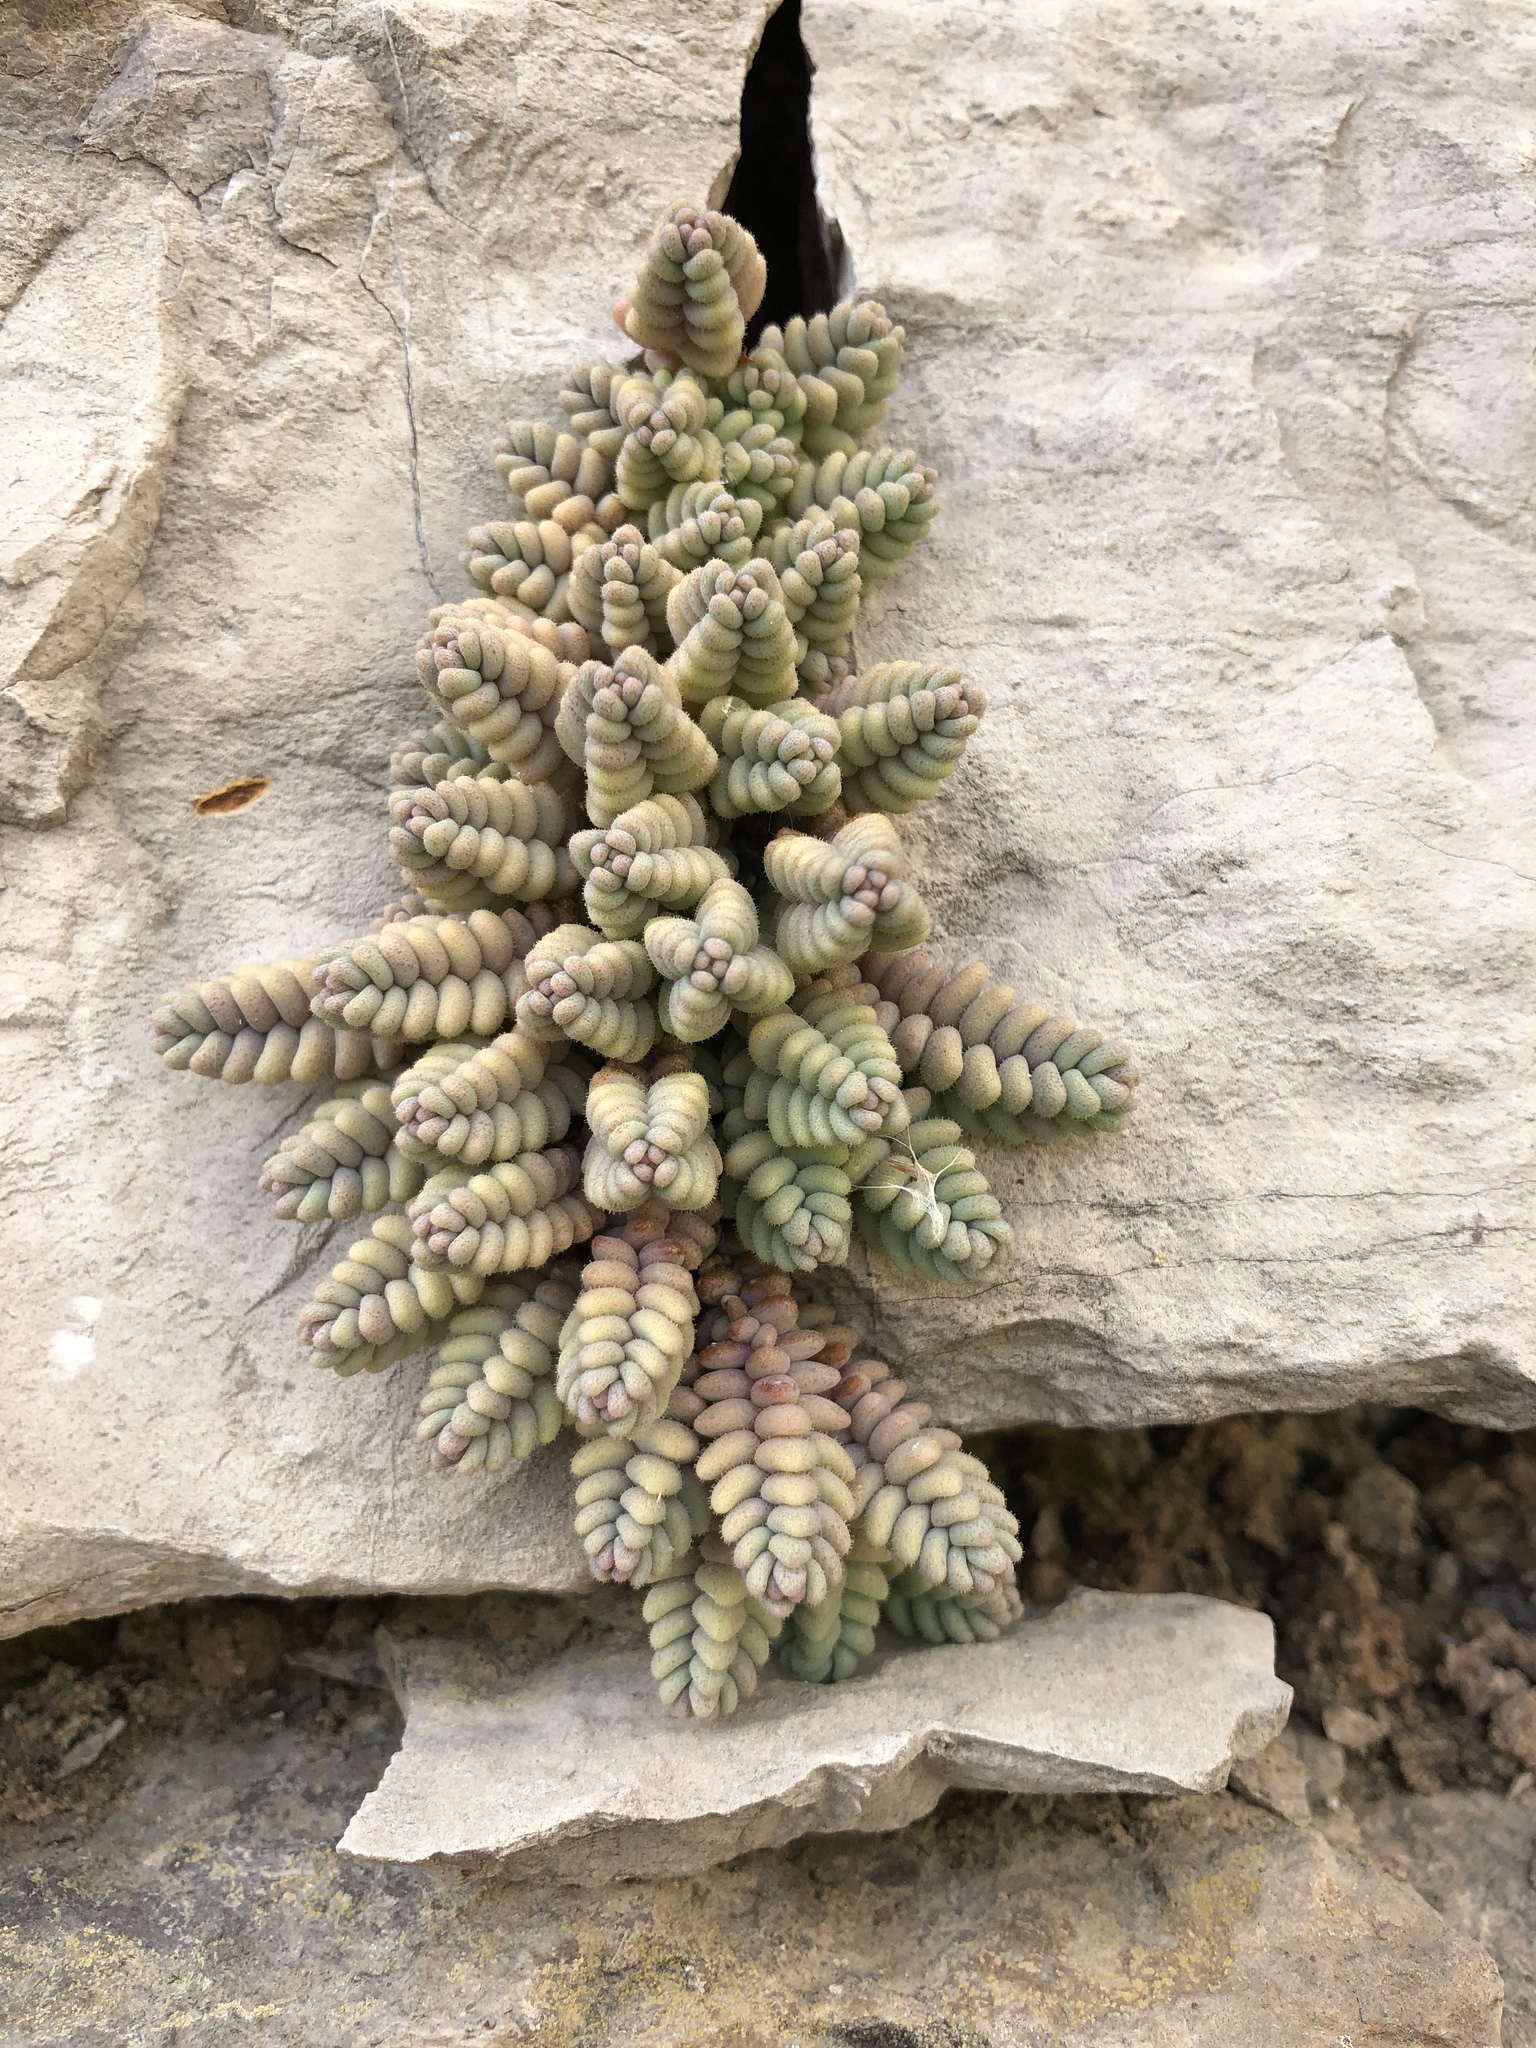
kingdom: Plantae
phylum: Tracheophyta
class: Magnoliopsida
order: Saxifragales
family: Crassulaceae
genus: Sedum
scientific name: Sedum dasyphyllum
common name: Thick-leaf stonecrop
